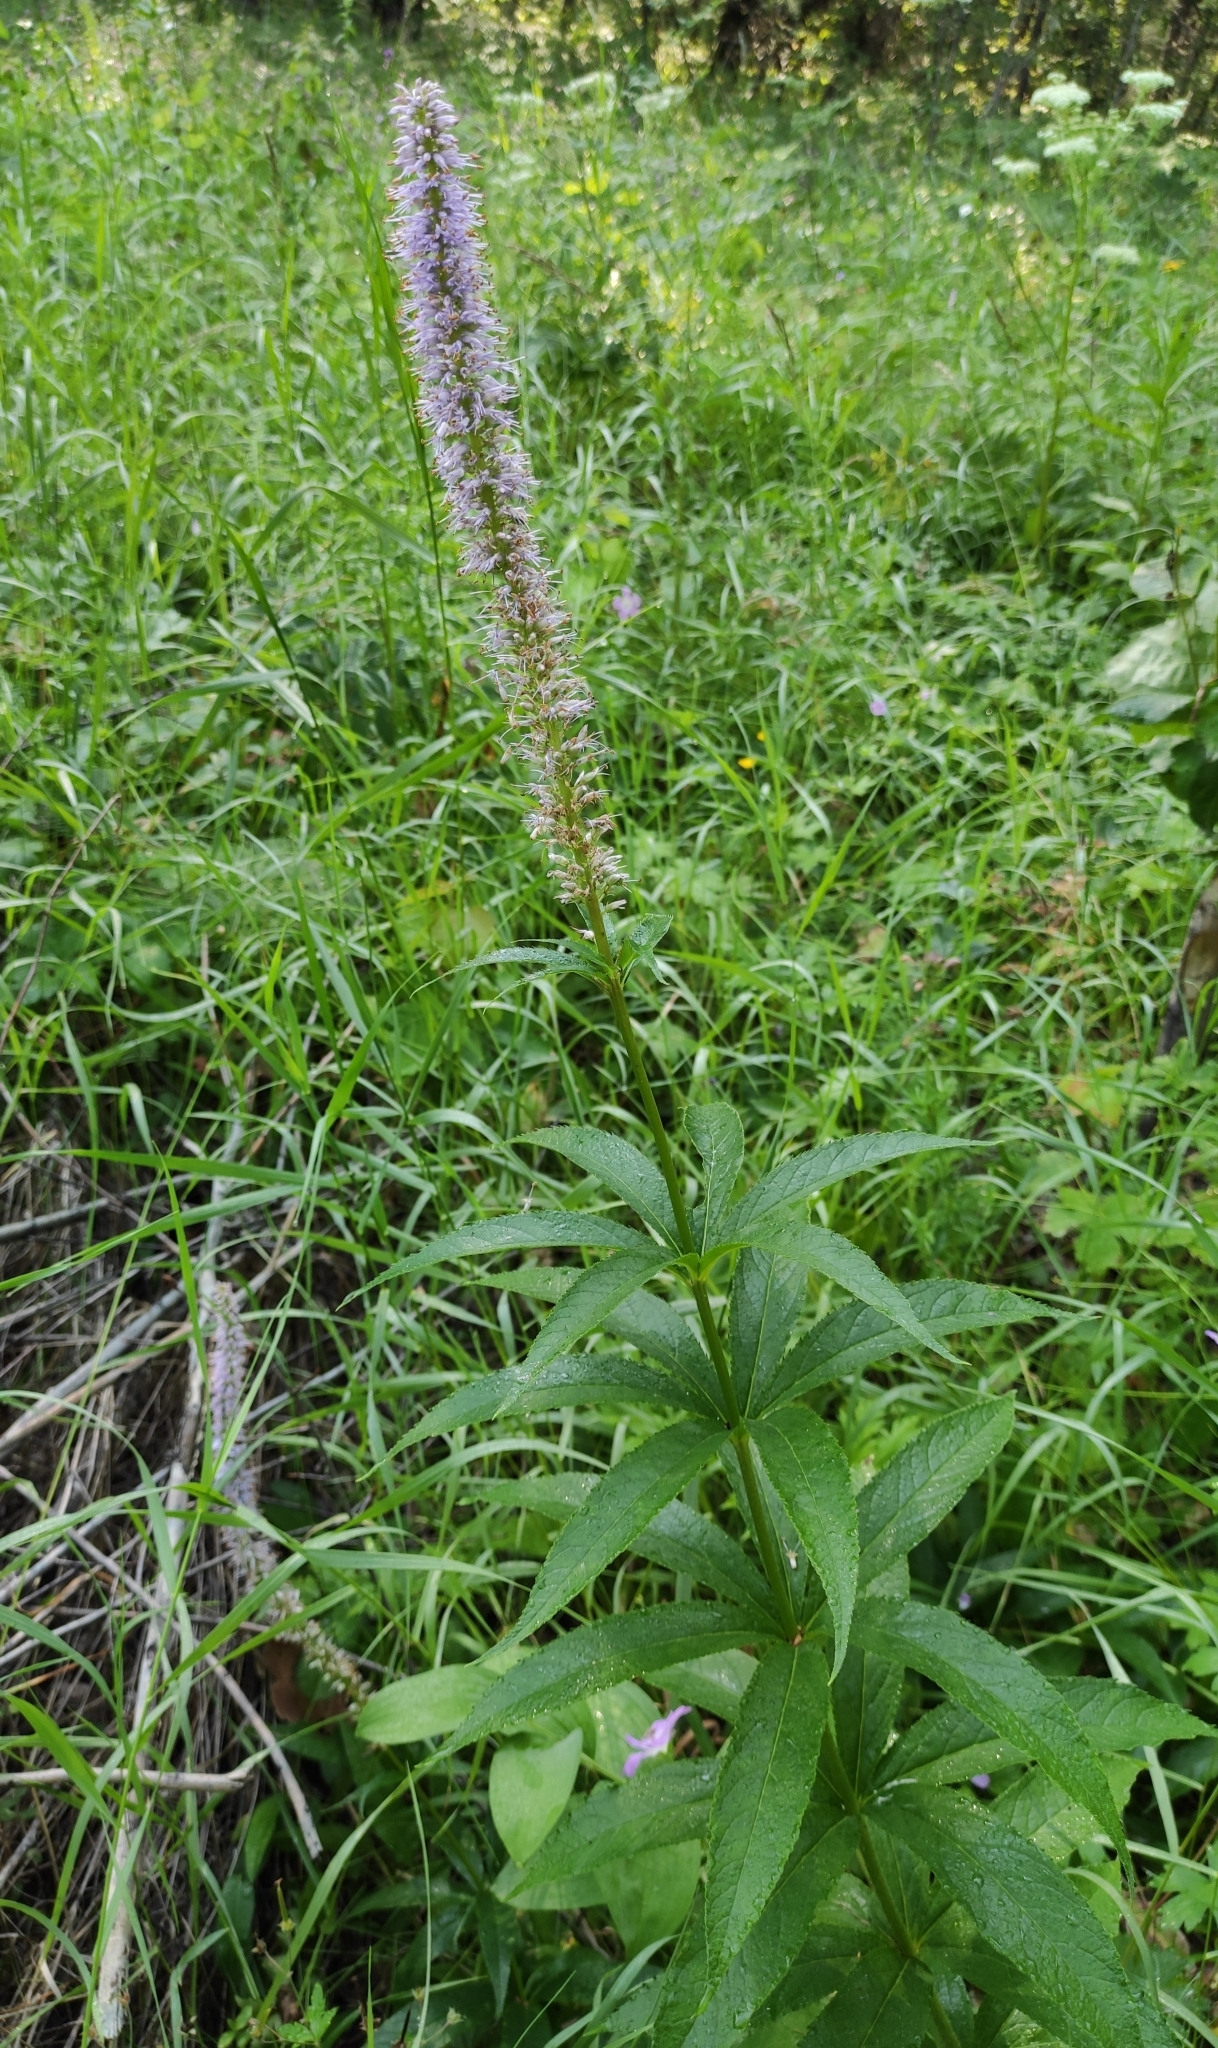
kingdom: Plantae
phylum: Tracheophyta
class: Magnoliopsida
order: Lamiales
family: Plantaginaceae
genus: Veronicastrum
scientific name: Veronicastrum sibiricum
